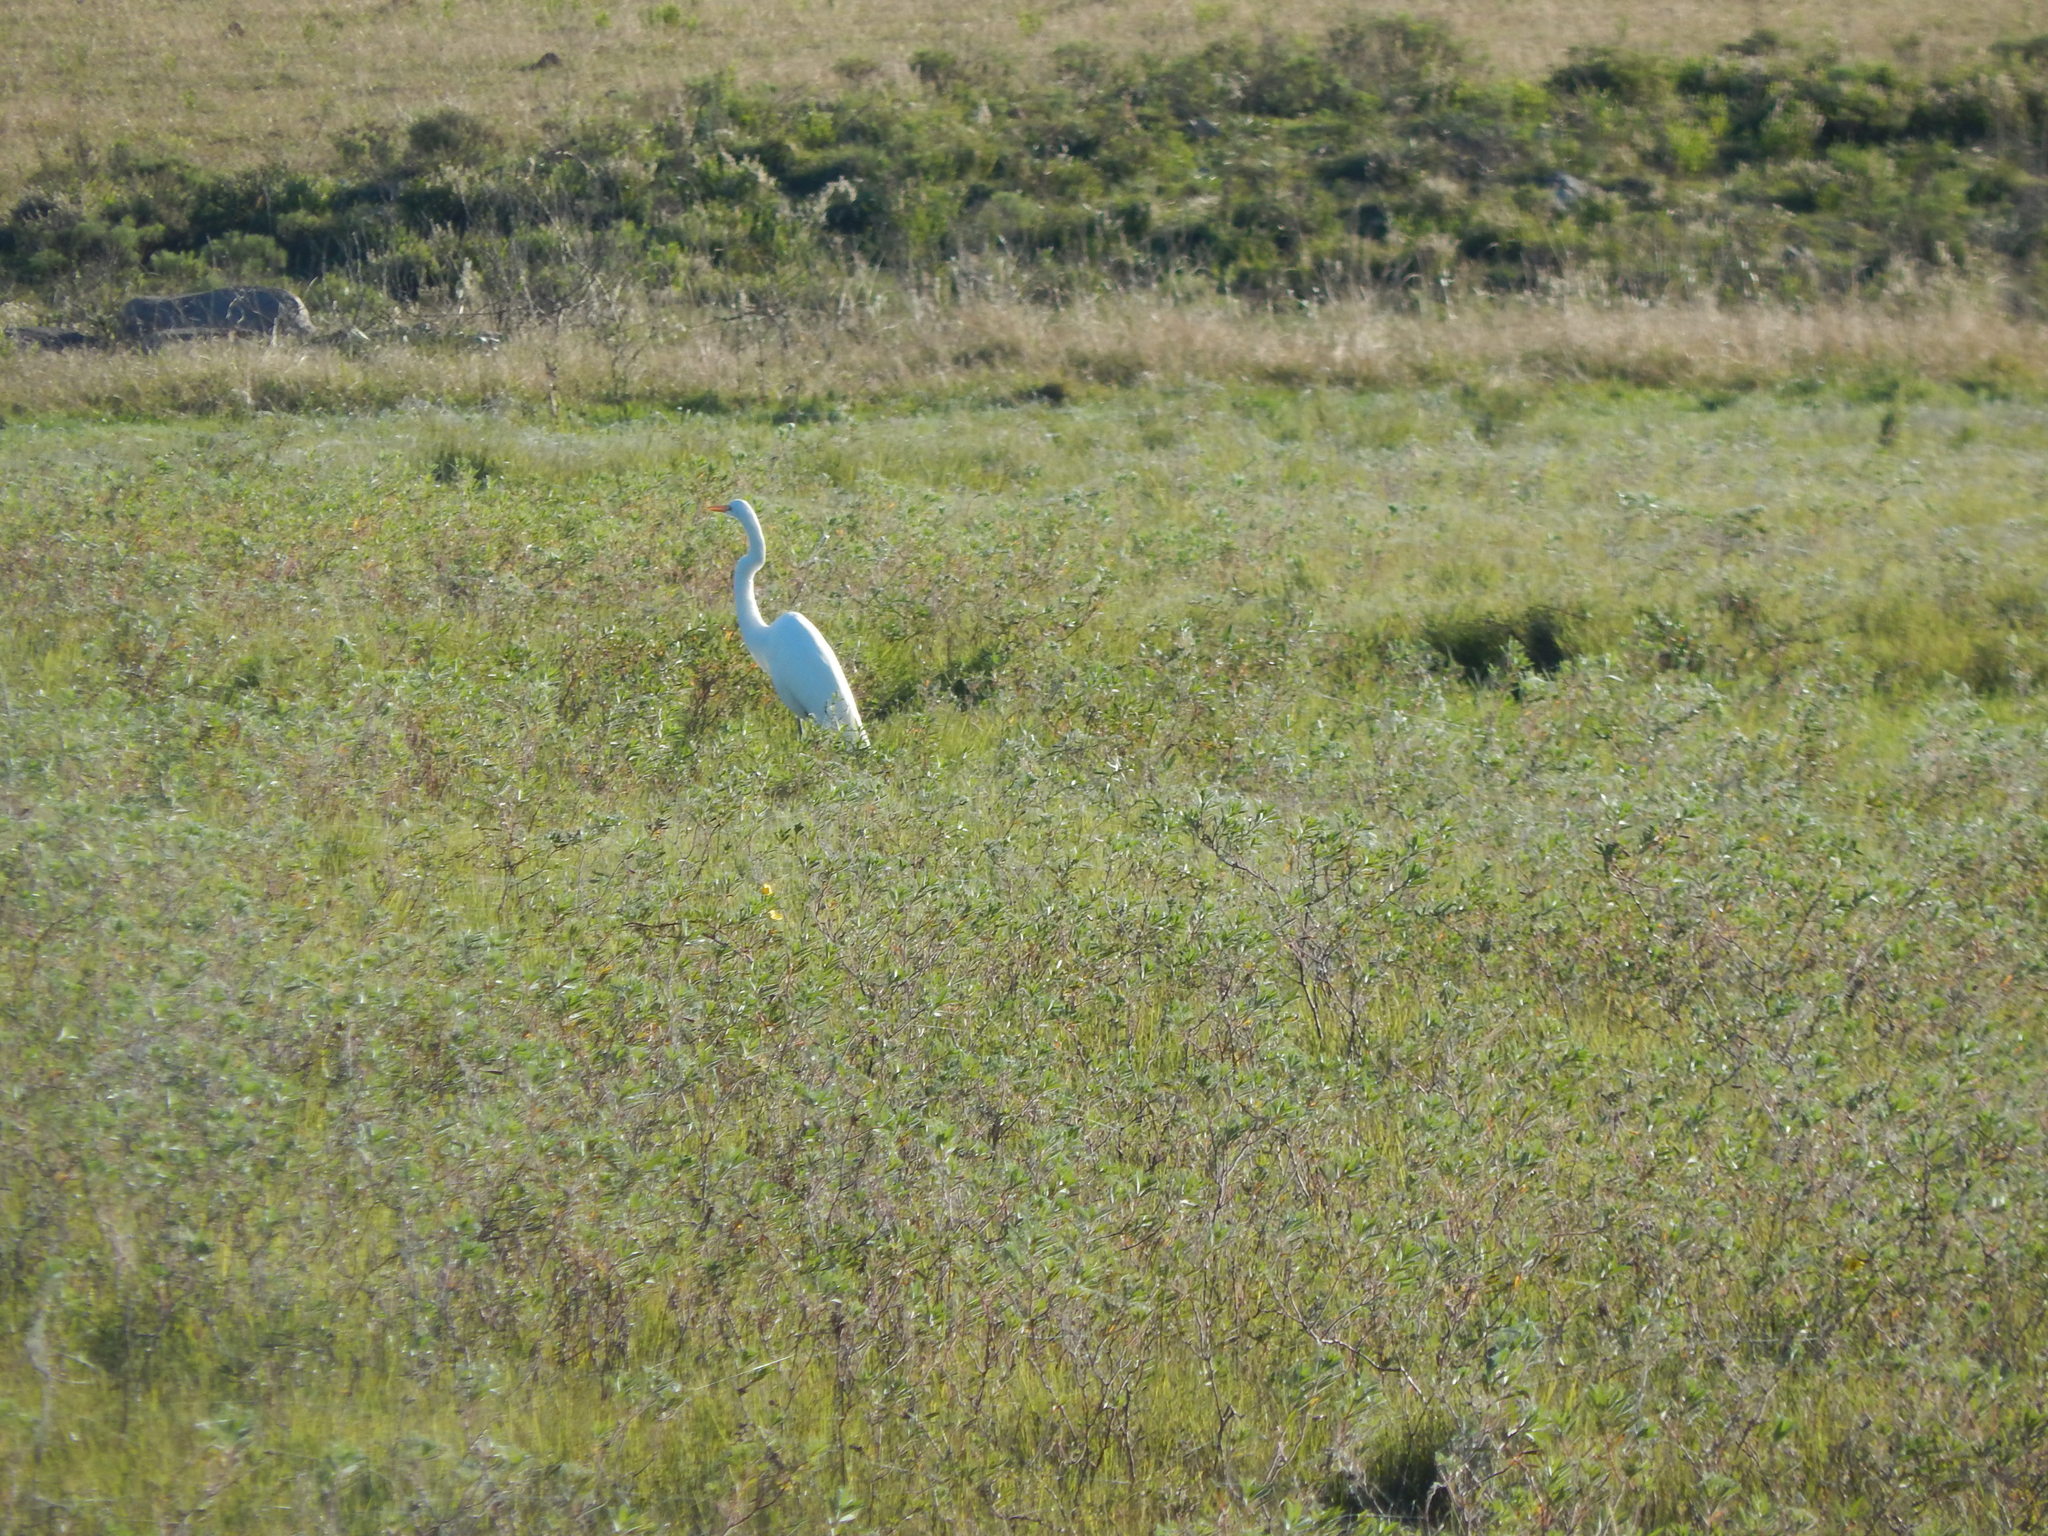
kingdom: Animalia
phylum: Chordata
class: Aves
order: Pelecaniformes
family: Ardeidae
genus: Ardea
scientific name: Ardea alba
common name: Great egret
